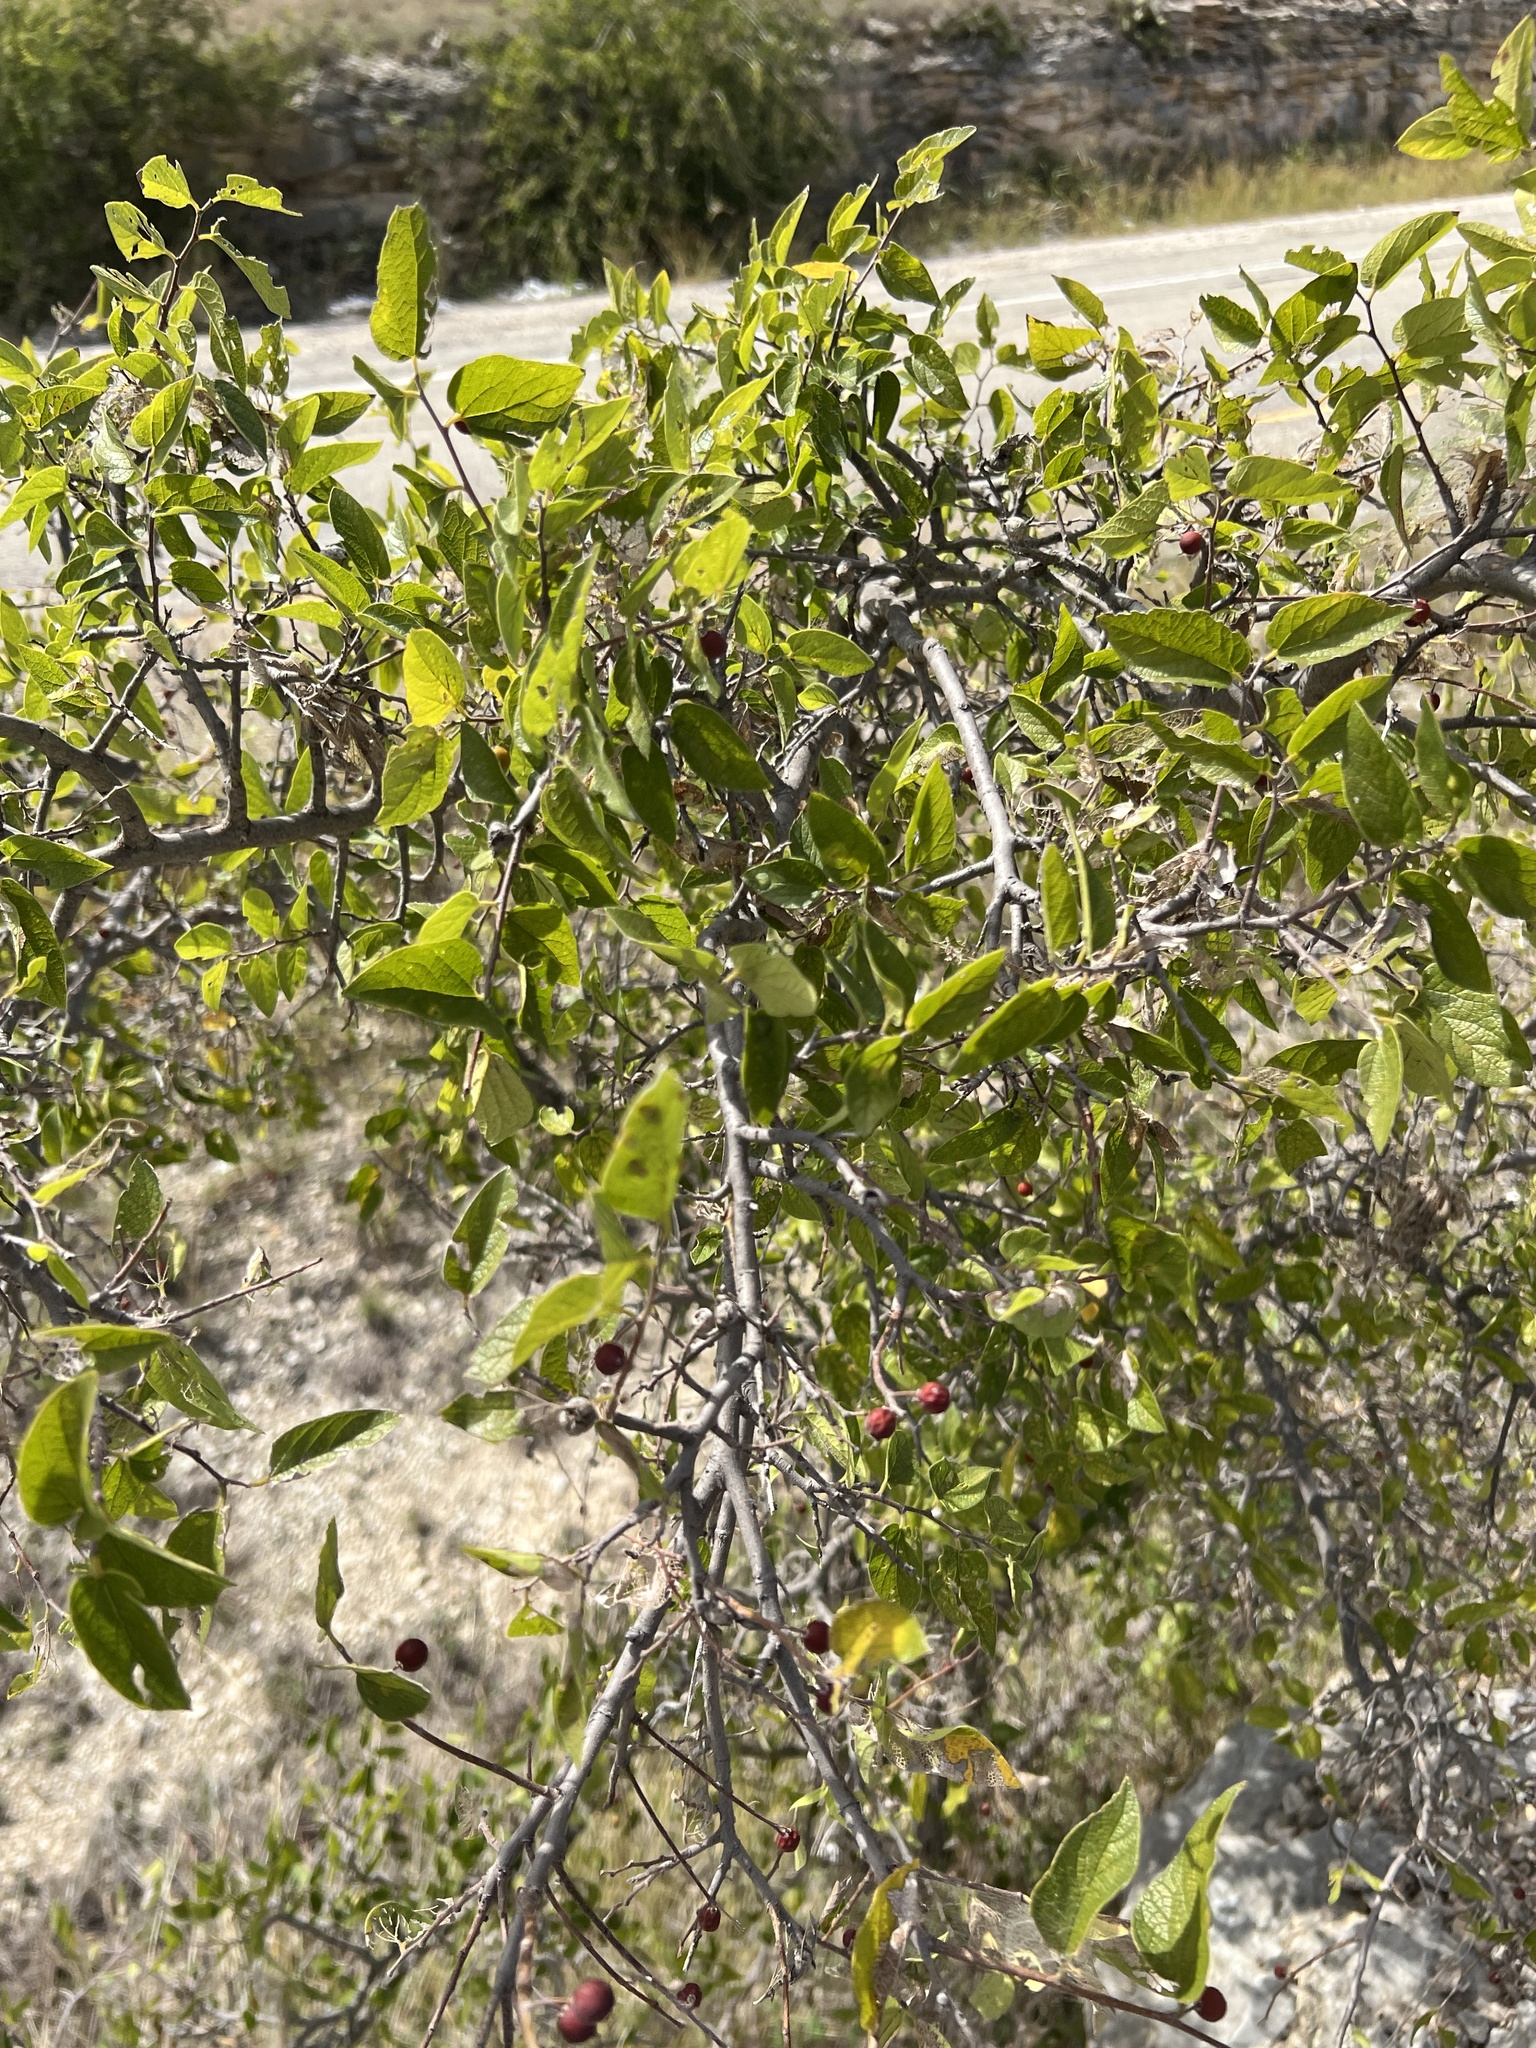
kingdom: Plantae
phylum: Tracheophyta
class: Magnoliopsida
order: Rosales
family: Cannabaceae
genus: Celtis
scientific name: Celtis reticulata
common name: Netleaf hackberry
